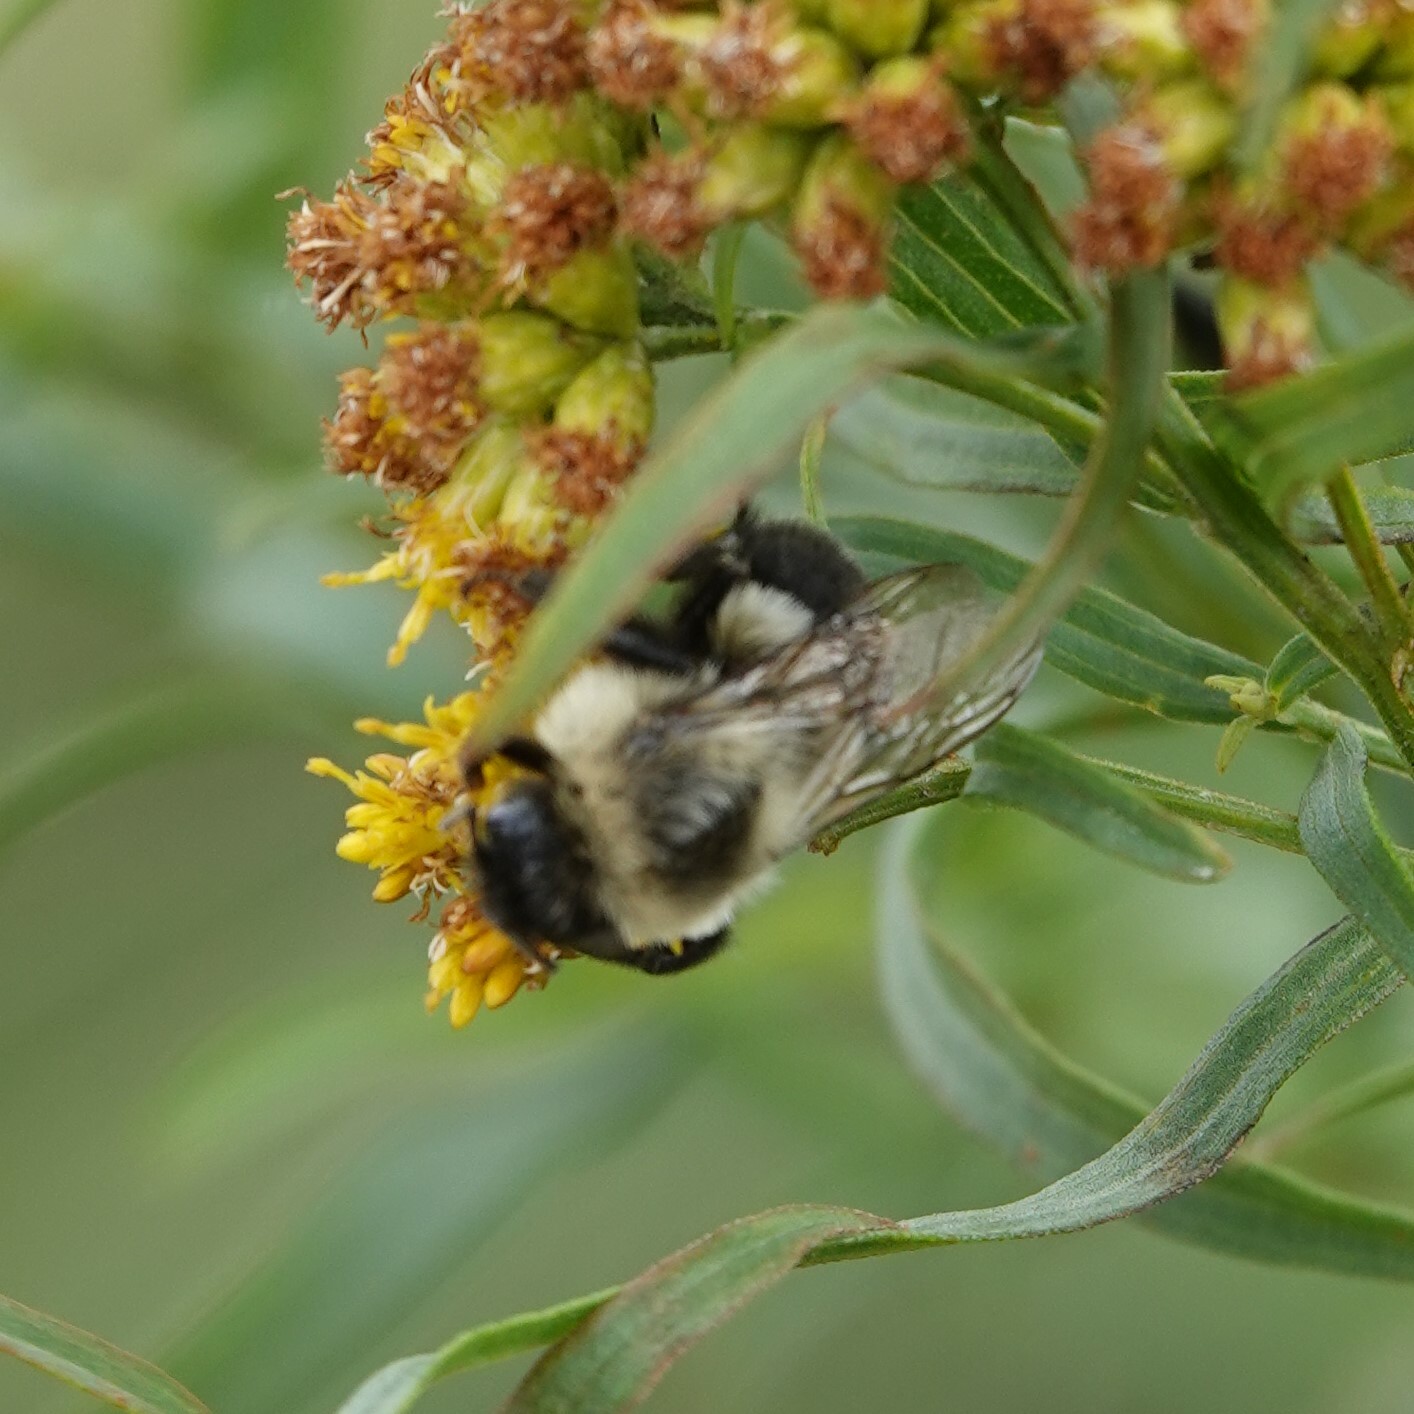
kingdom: Animalia
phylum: Arthropoda
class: Insecta
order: Hymenoptera
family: Apidae
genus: Bombus
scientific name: Bombus impatiens
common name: Common eastern bumble bee
